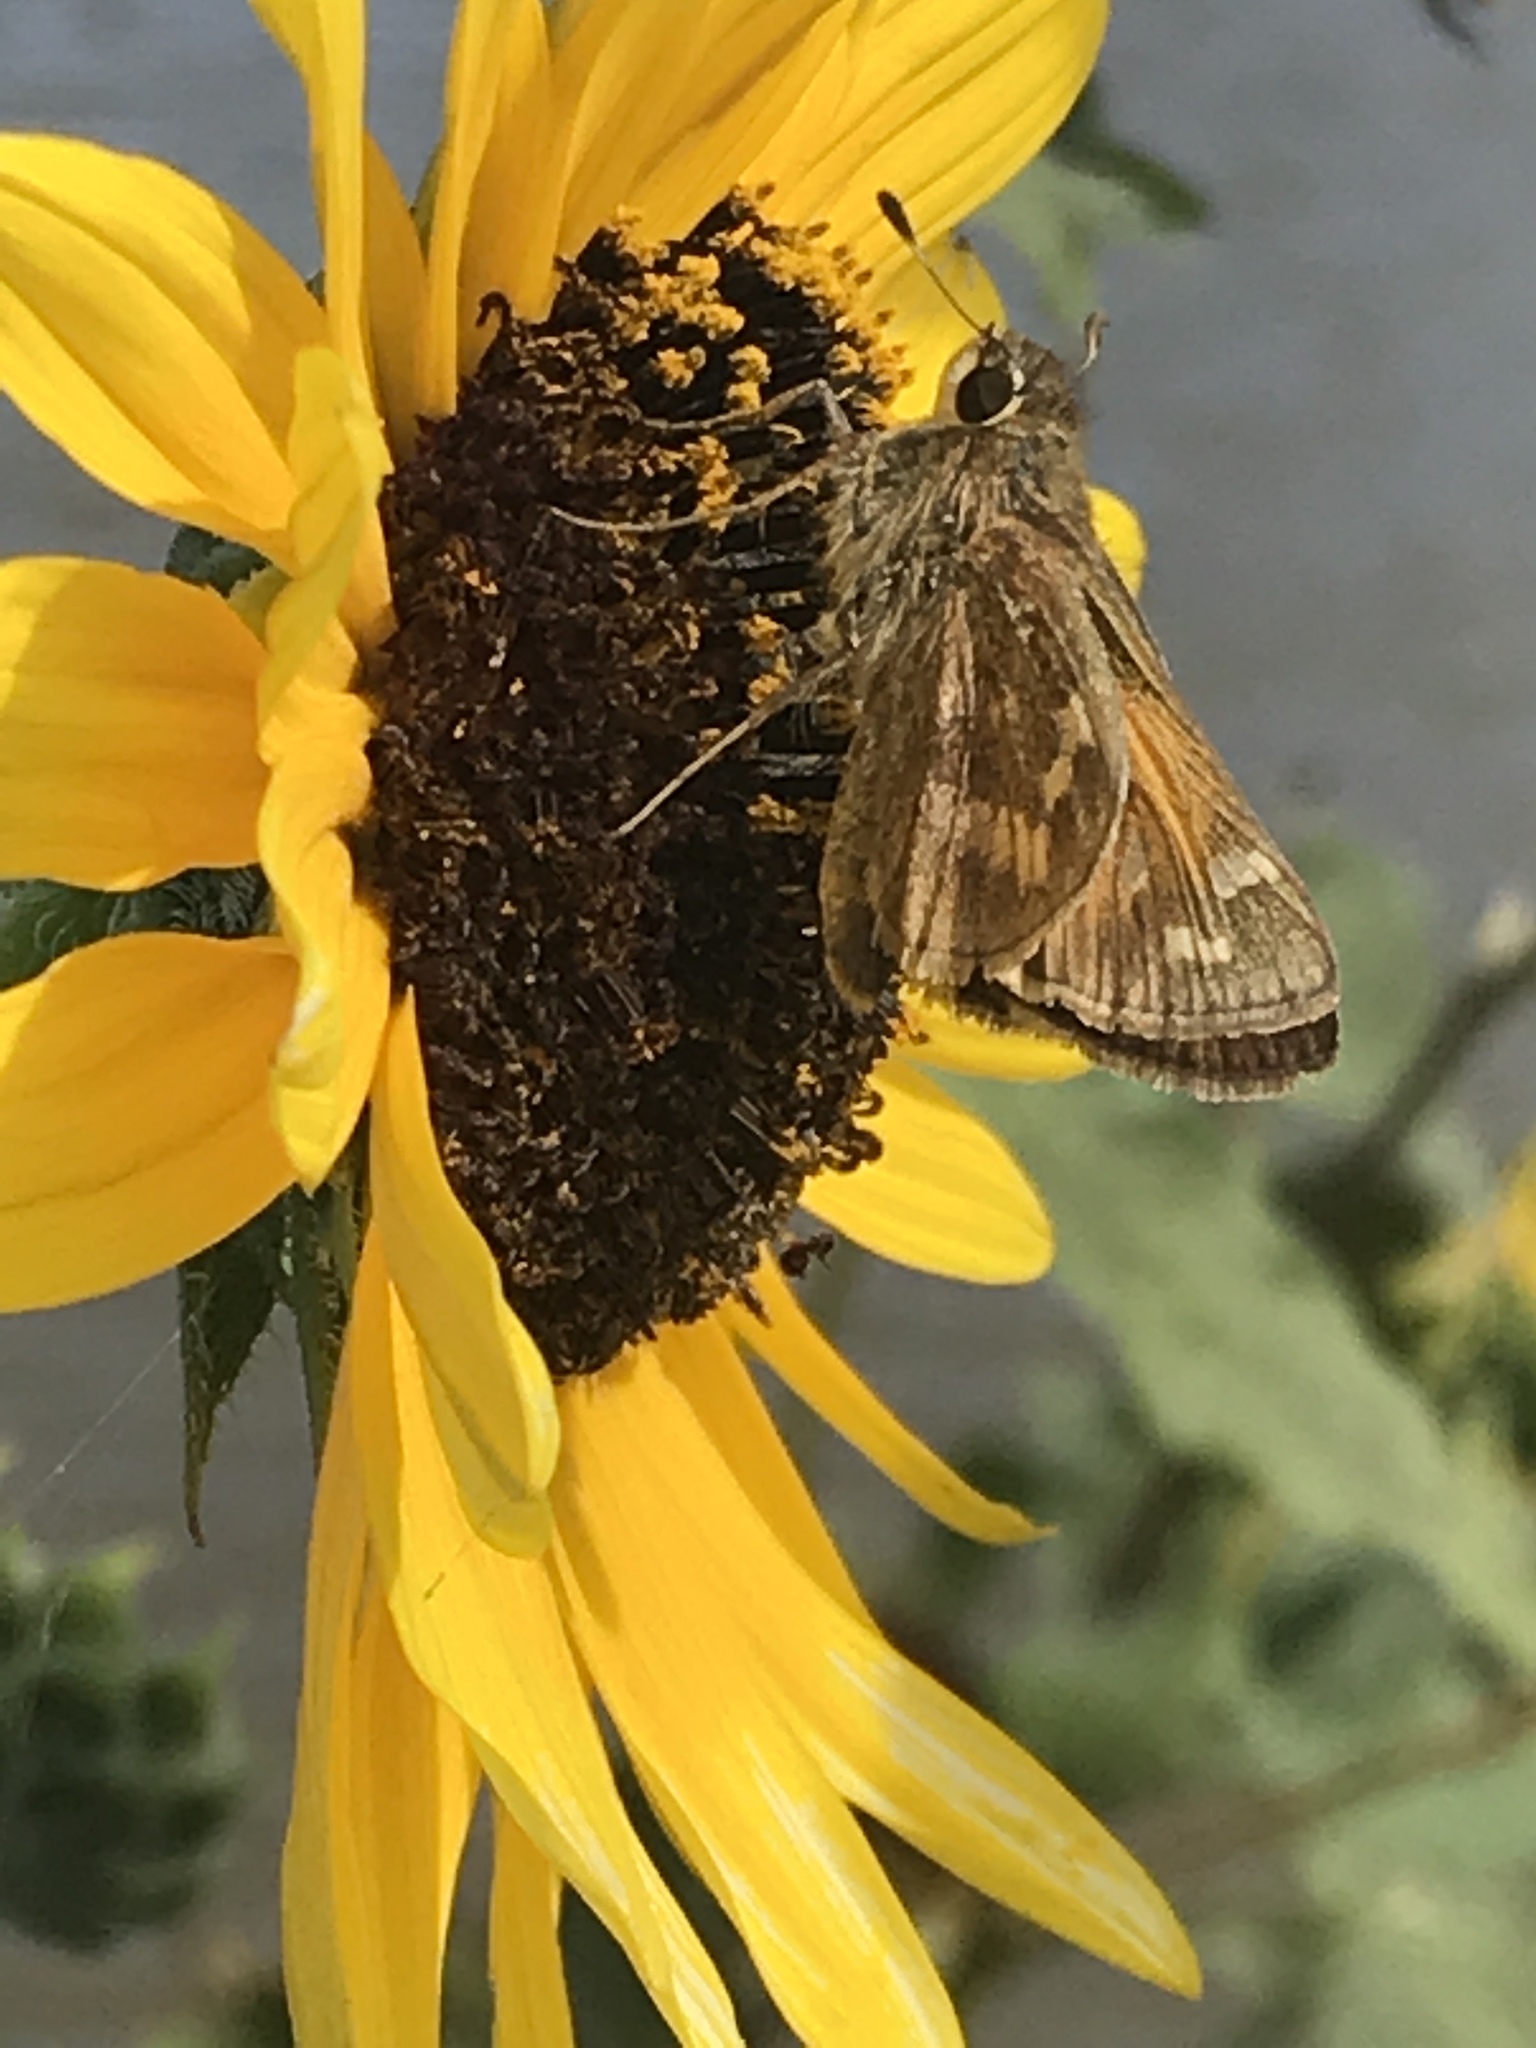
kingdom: Animalia
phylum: Arthropoda
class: Insecta
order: Lepidoptera
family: Hesperiidae
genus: Atalopedes
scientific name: Atalopedes
